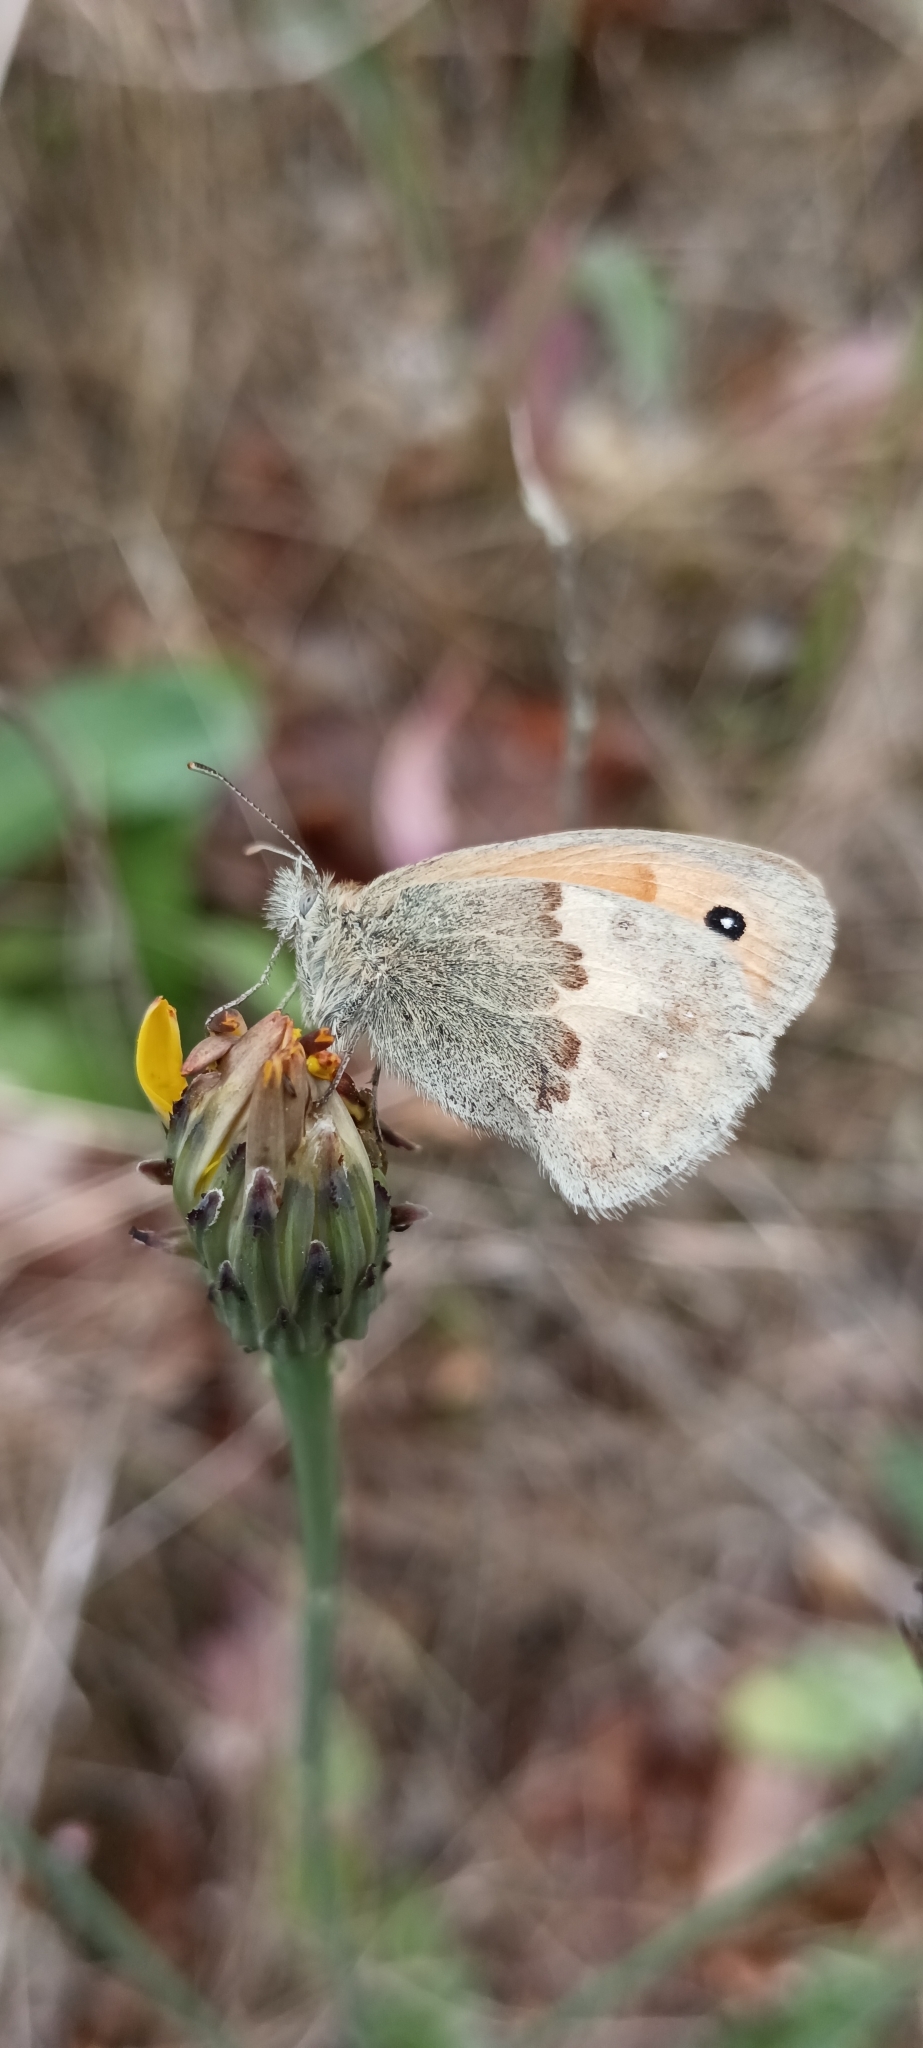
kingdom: Animalia
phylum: Arthropoda
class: Insecta
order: Lepidoptera
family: Nymphalidae
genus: Coenonympha
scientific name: Coenonympha pamphilus
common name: Small heath
